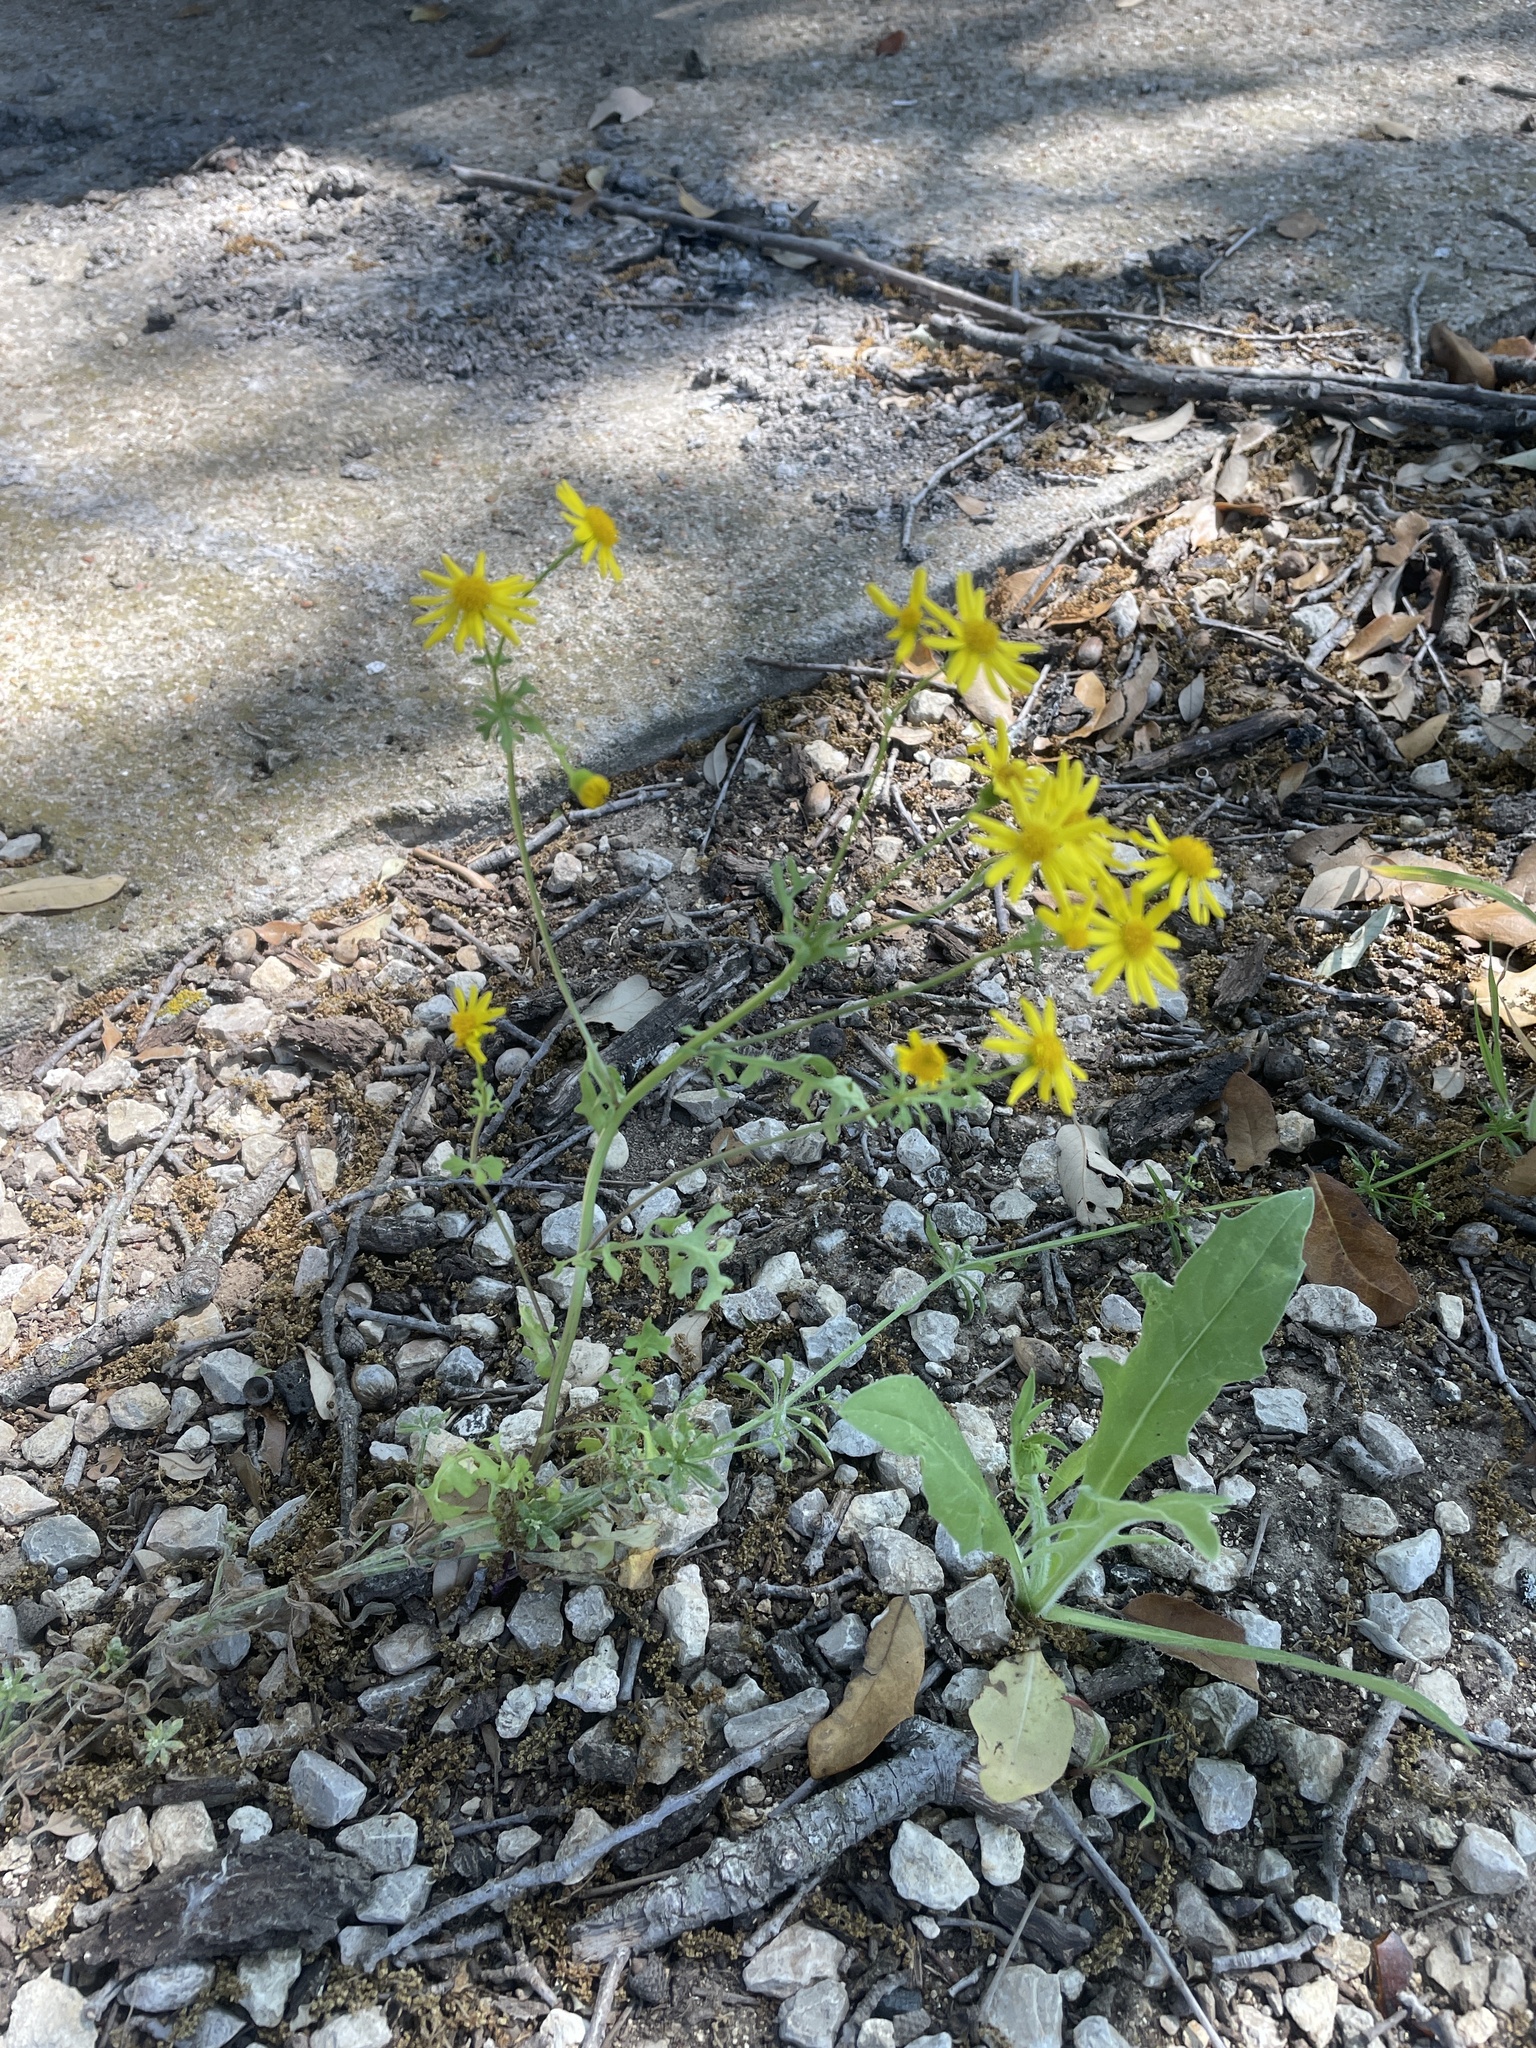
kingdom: Plantae
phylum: Tracheophyta
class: Magnoliopsida
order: Asterales
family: Asteraceae
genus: Packera
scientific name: Packera tampicana
